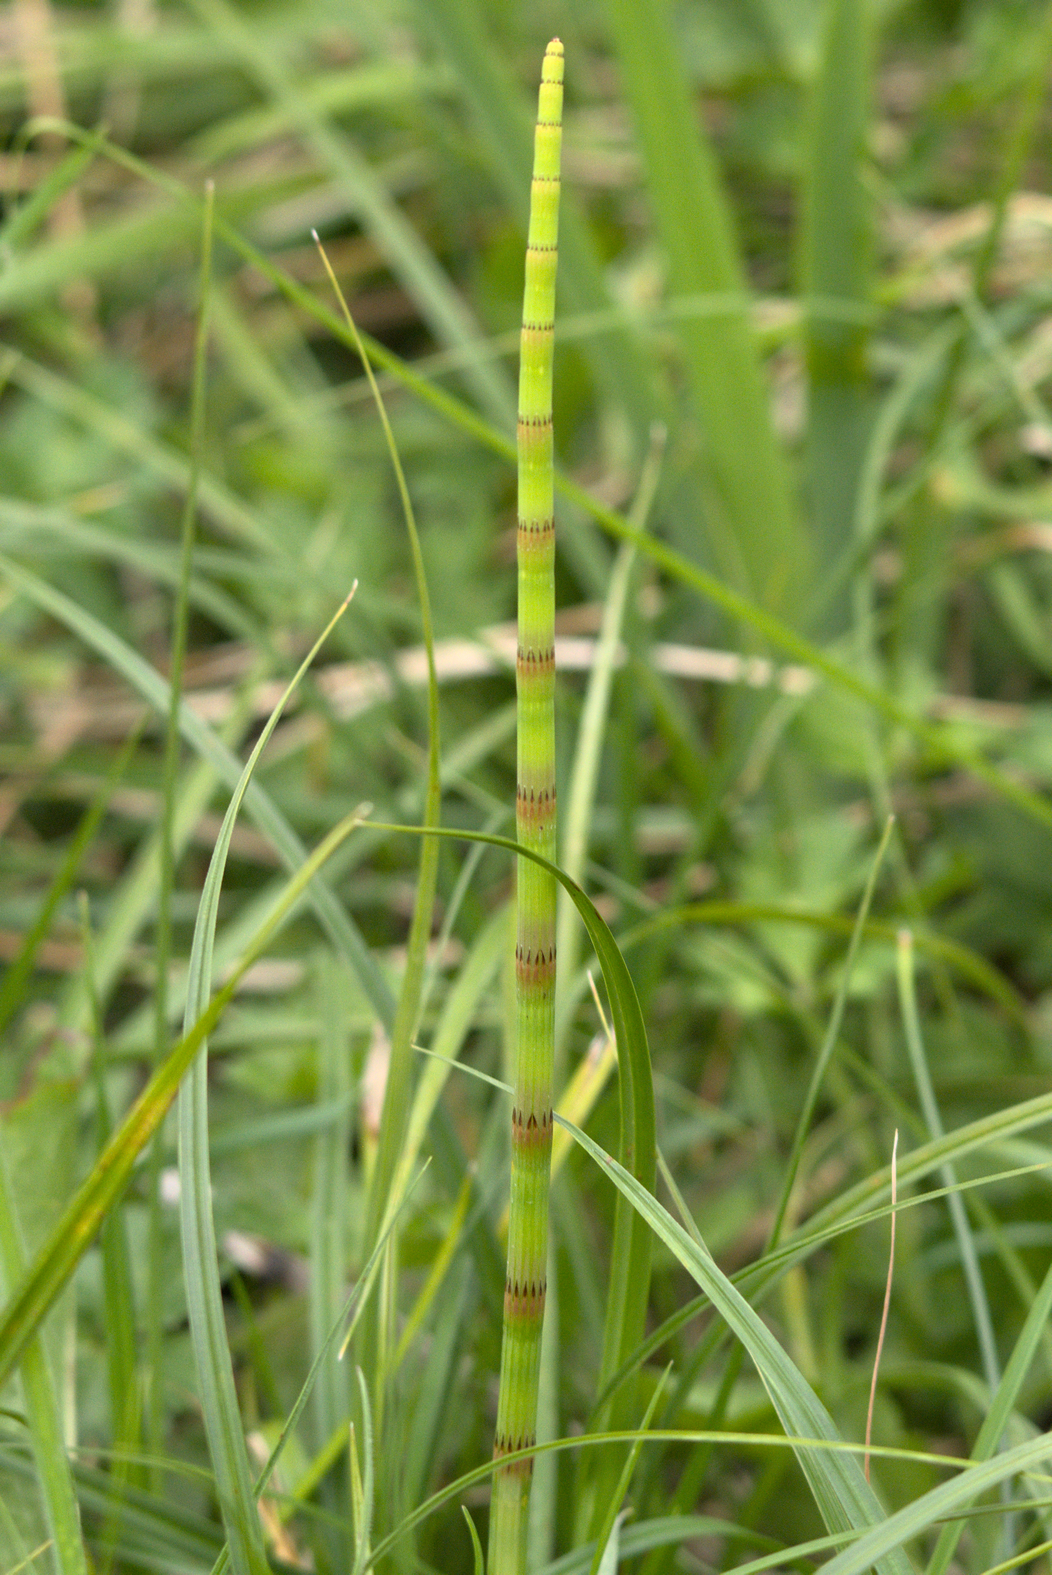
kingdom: Plantae
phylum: Tracheophyta
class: Polypodiopsida
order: Equisetales
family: Equisetaceae
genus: Equisetum
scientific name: Equisetum fluviatile
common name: Water horsetail
